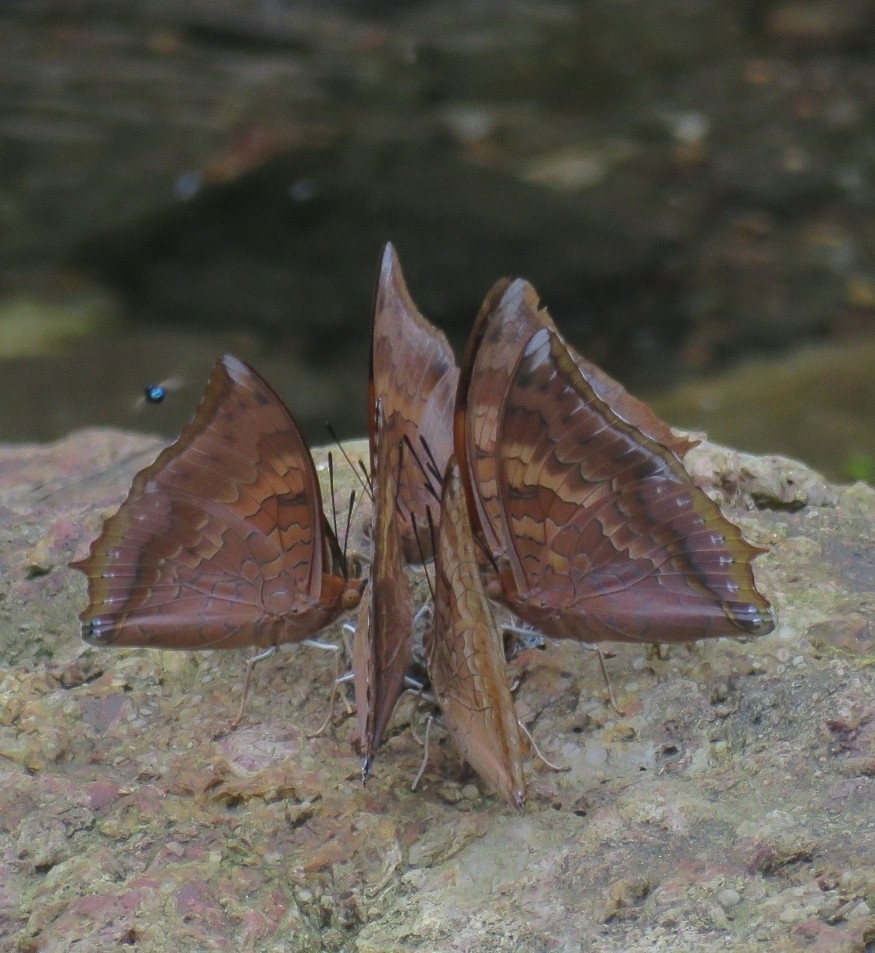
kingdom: Animalia
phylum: Arthropoda
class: Insecta
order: Lepidoptera
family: Nymphalidae
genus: Charaxes
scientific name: Charaxes bernardus
